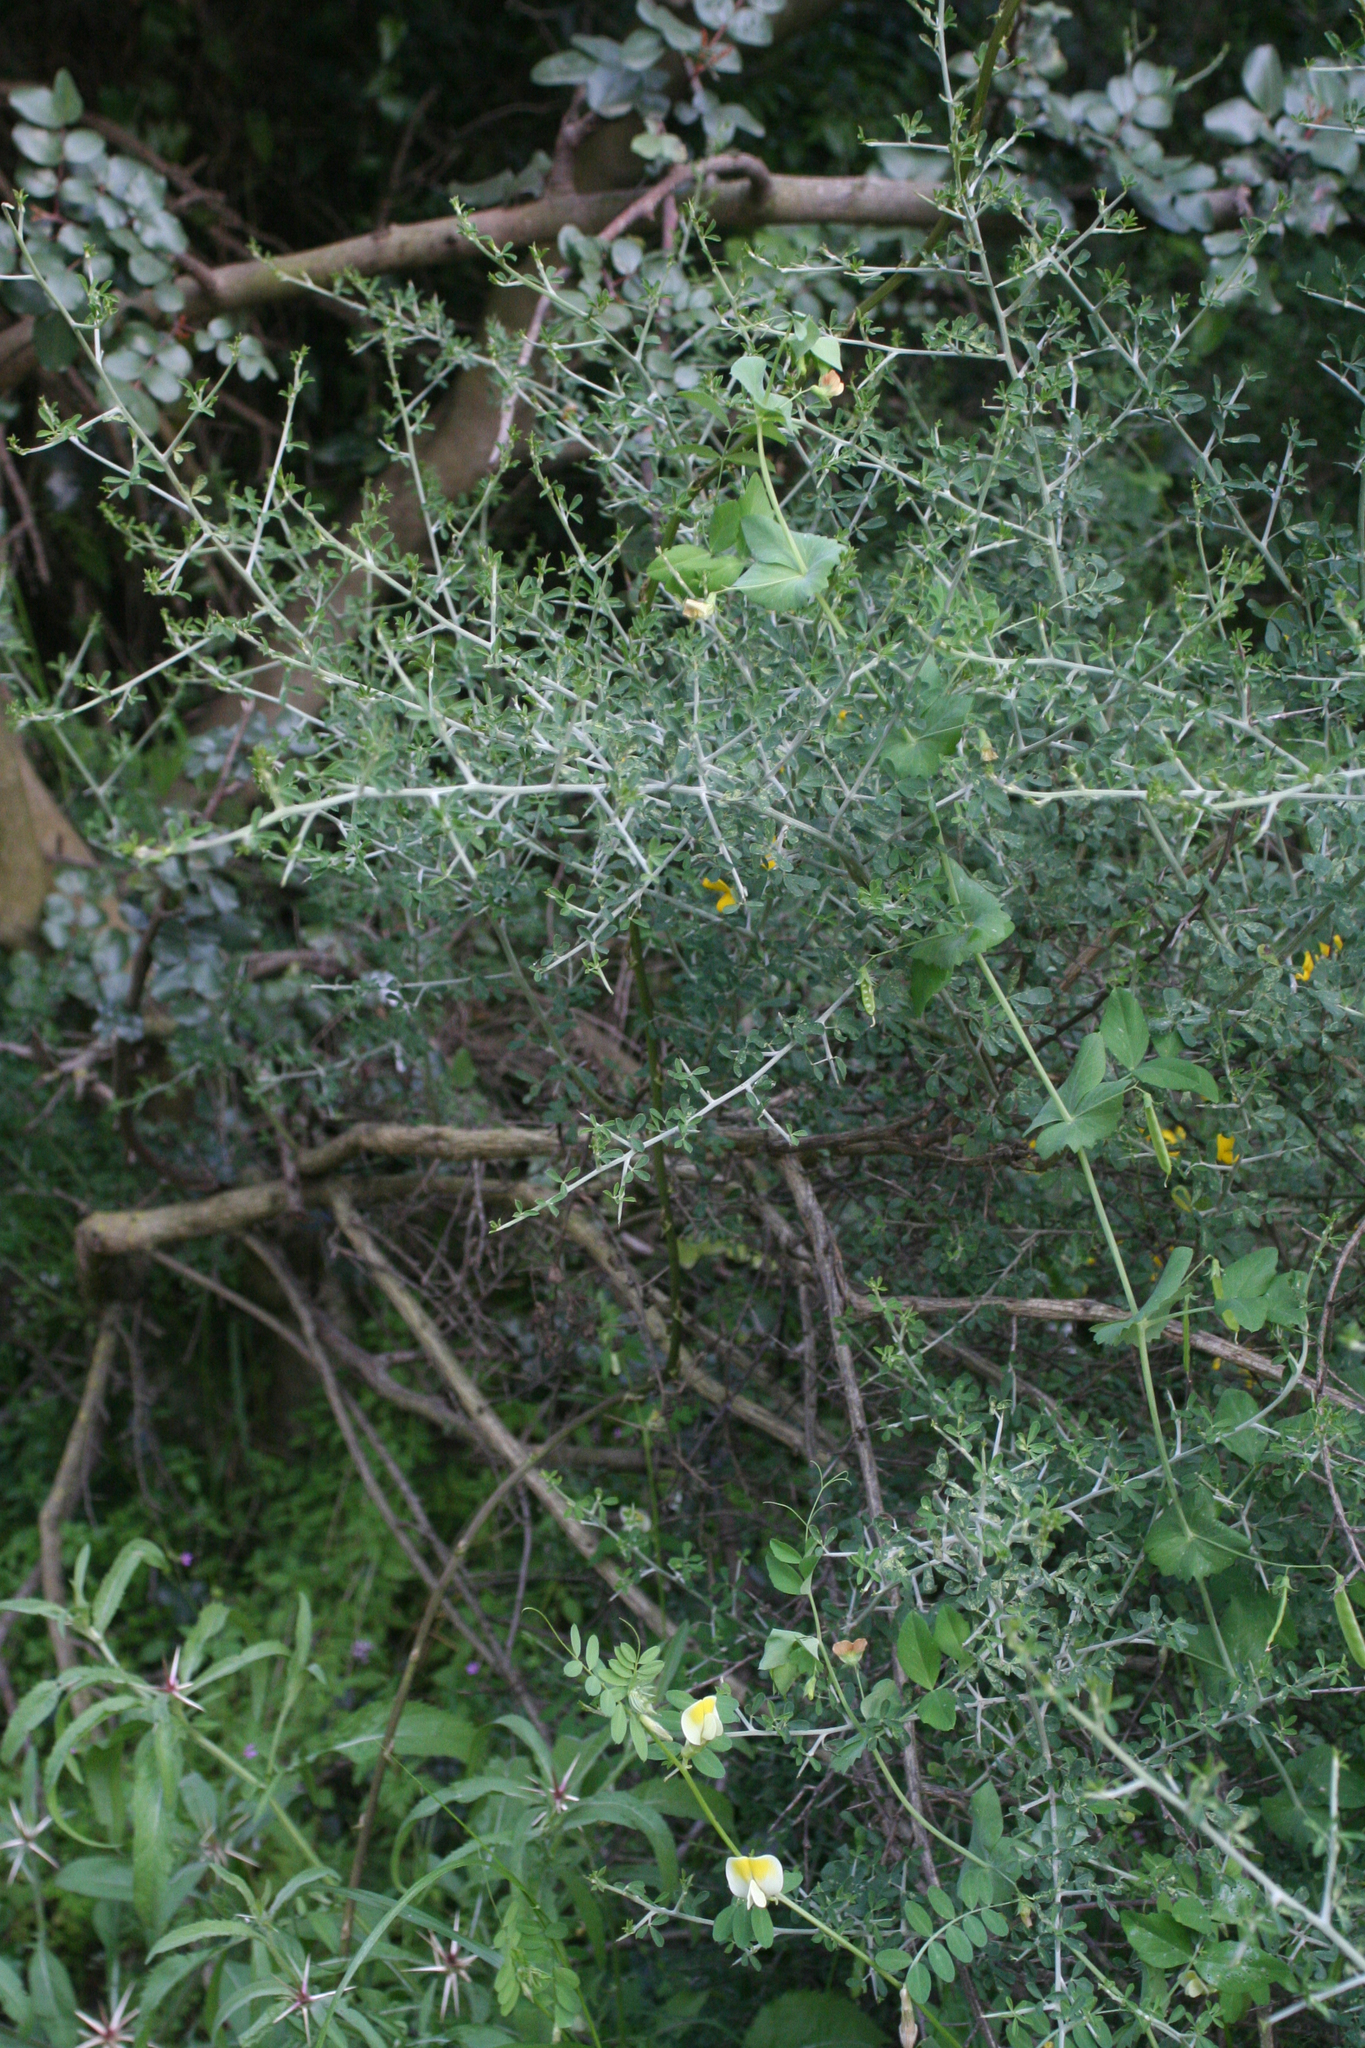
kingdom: Plantae
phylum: Tracheophyta
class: Magnoliopsida
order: Fabales
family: Fabaceae
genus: Lathyrus
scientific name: Lathyrus fulvus
